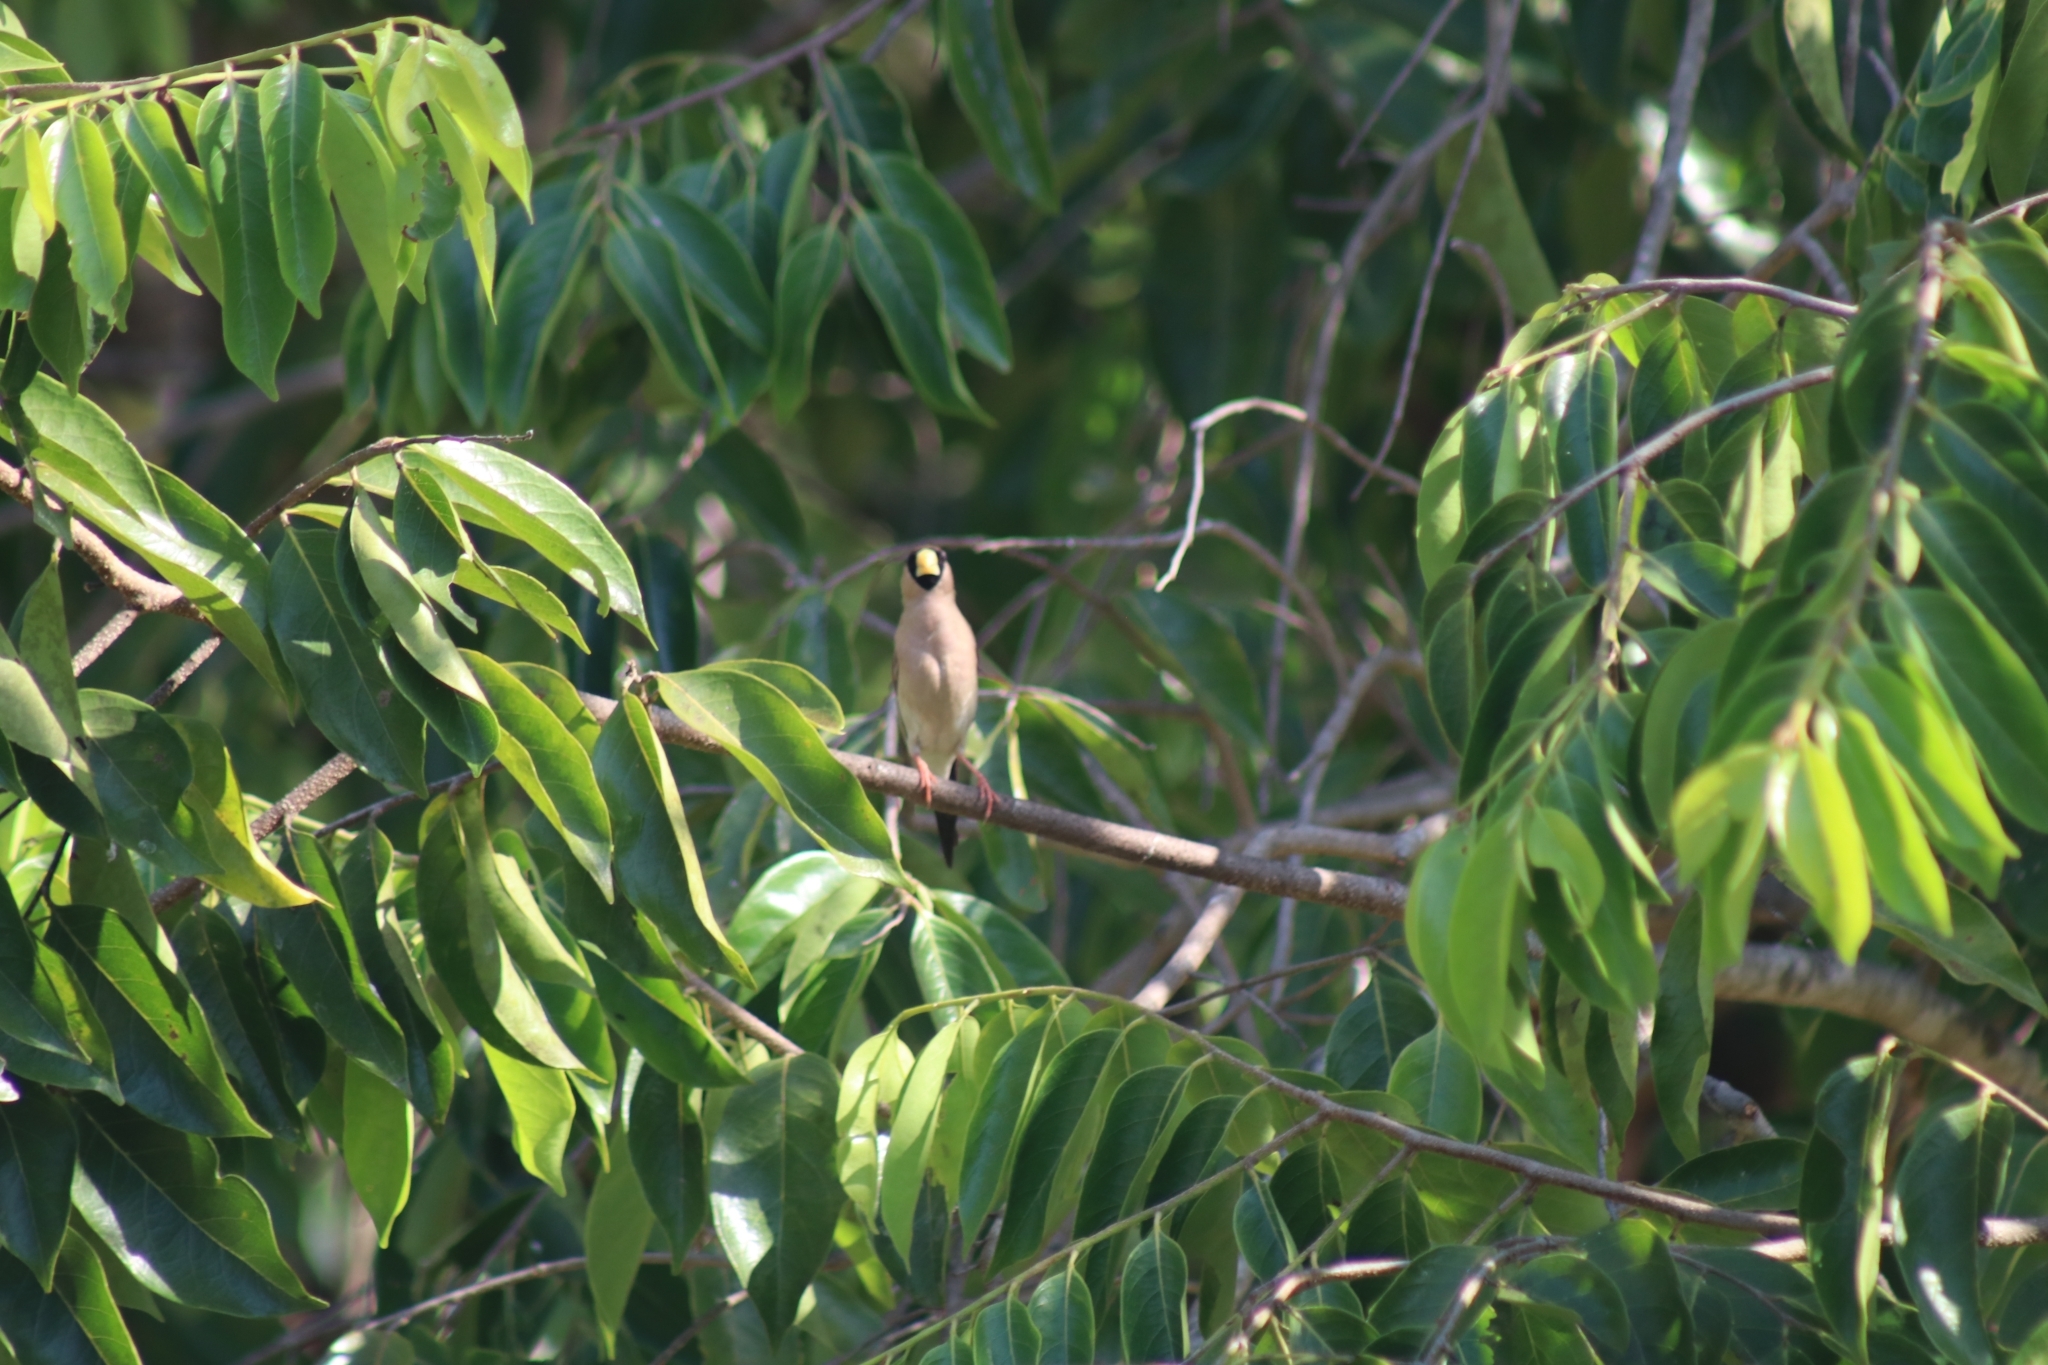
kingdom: Animalia
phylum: Chordata
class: Aves
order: Passeriformes
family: Estrildidae
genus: Poephila
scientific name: Poephila personata
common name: Masked finch
